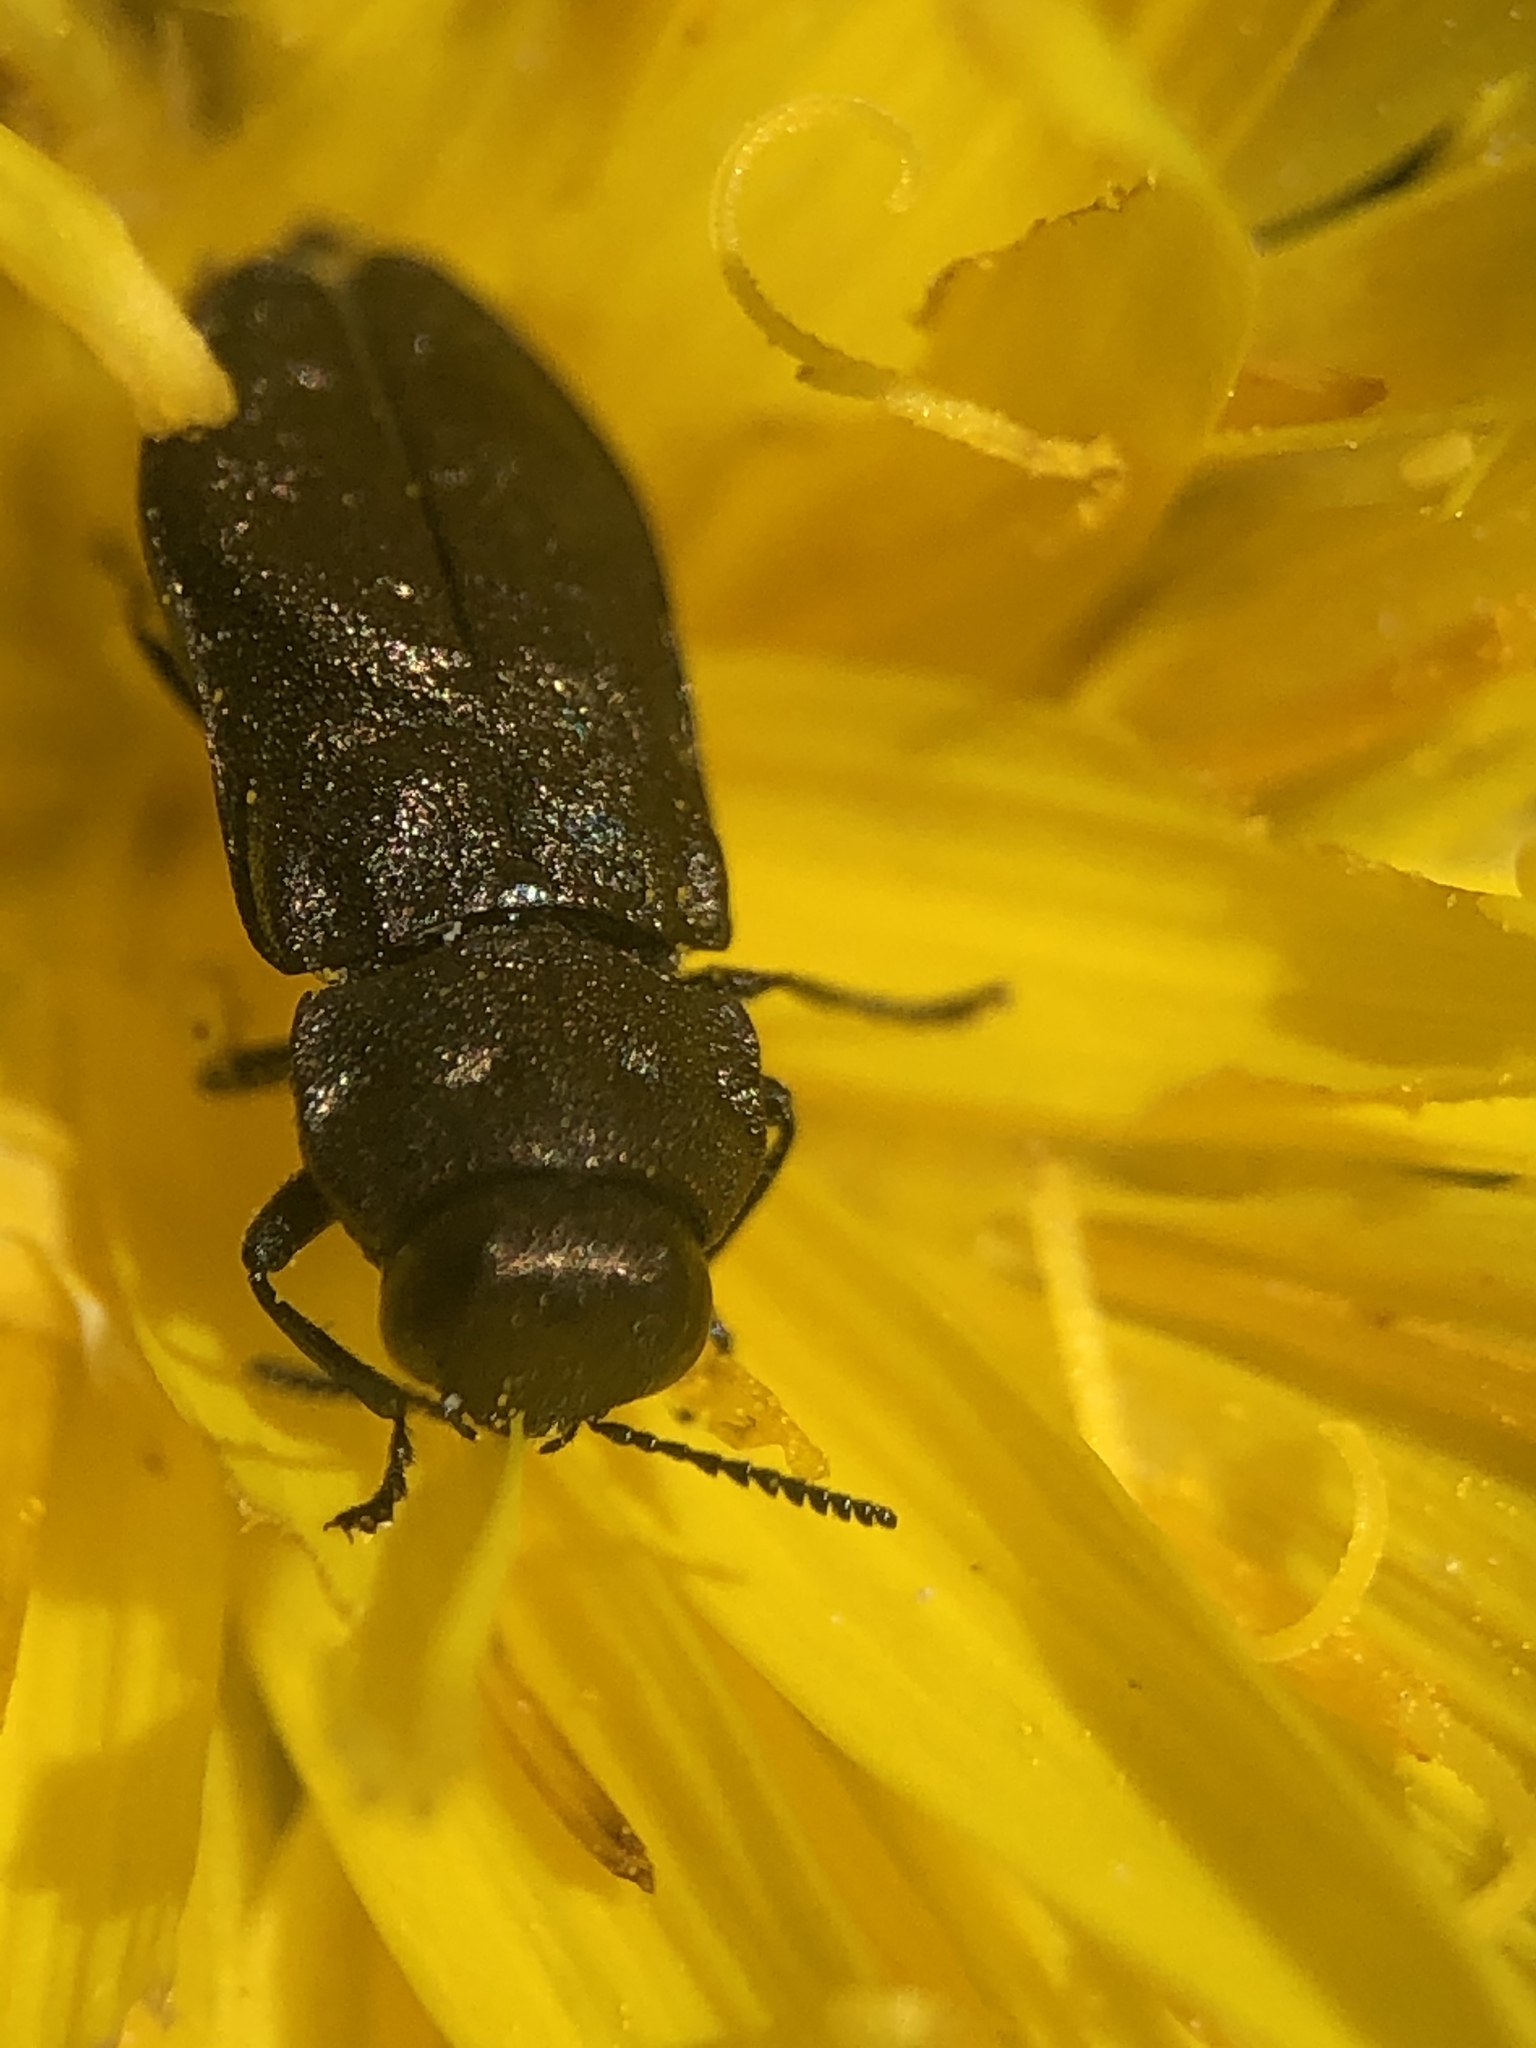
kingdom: Animalia
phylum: Arthropoda
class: Insecta
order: Coleoptera
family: Buprestidae
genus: Anthaxia
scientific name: Anthaxia quadripunctata
